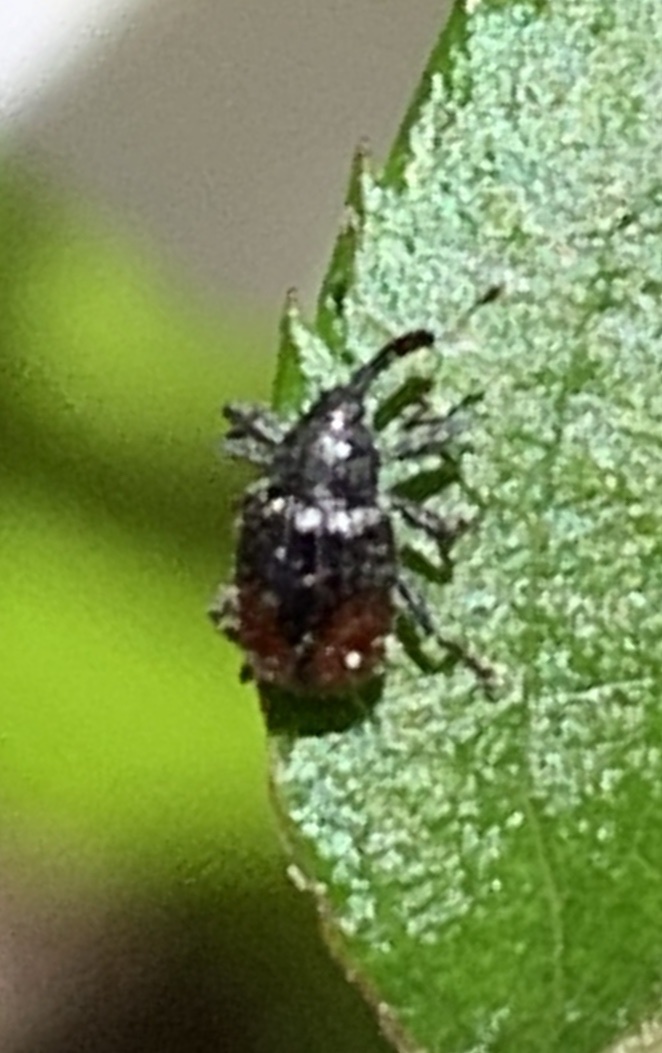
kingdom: Animalia
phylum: Arthropoda
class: Insecta
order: Coleoptera
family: Curculionidae
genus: Anthonomus
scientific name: Anthonomus suturalis
